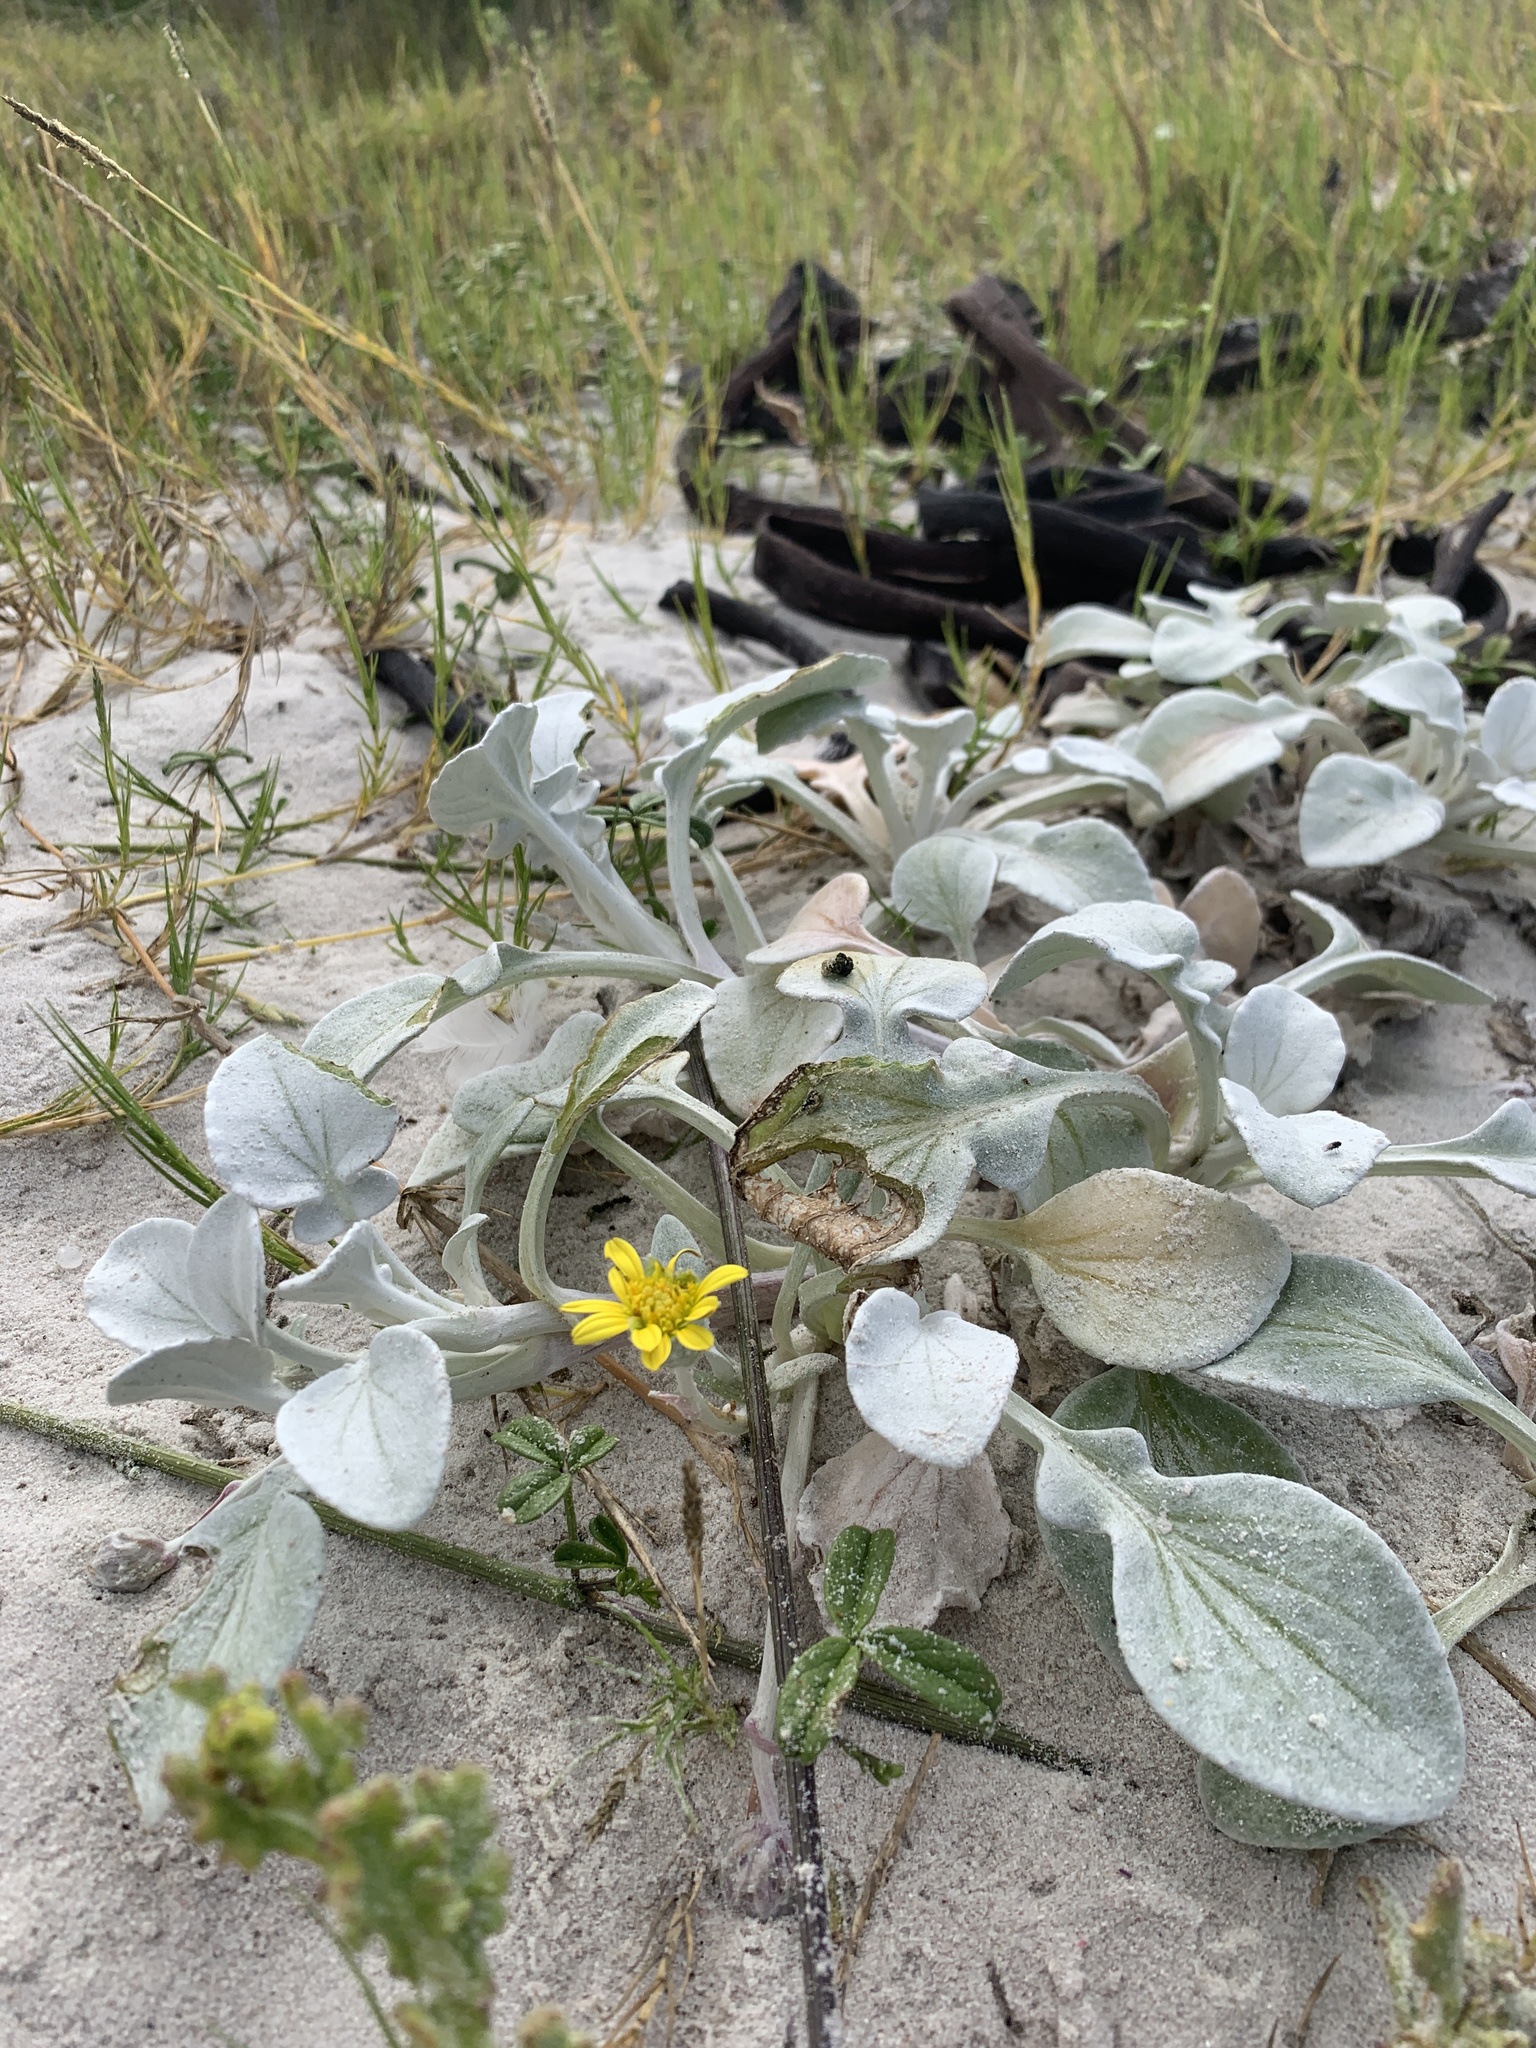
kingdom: Plantae
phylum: Tracheophyta
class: Magnoliopsida
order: Asterales
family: Asteraceae
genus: Arctotheca
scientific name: Arctotheca populifolia
